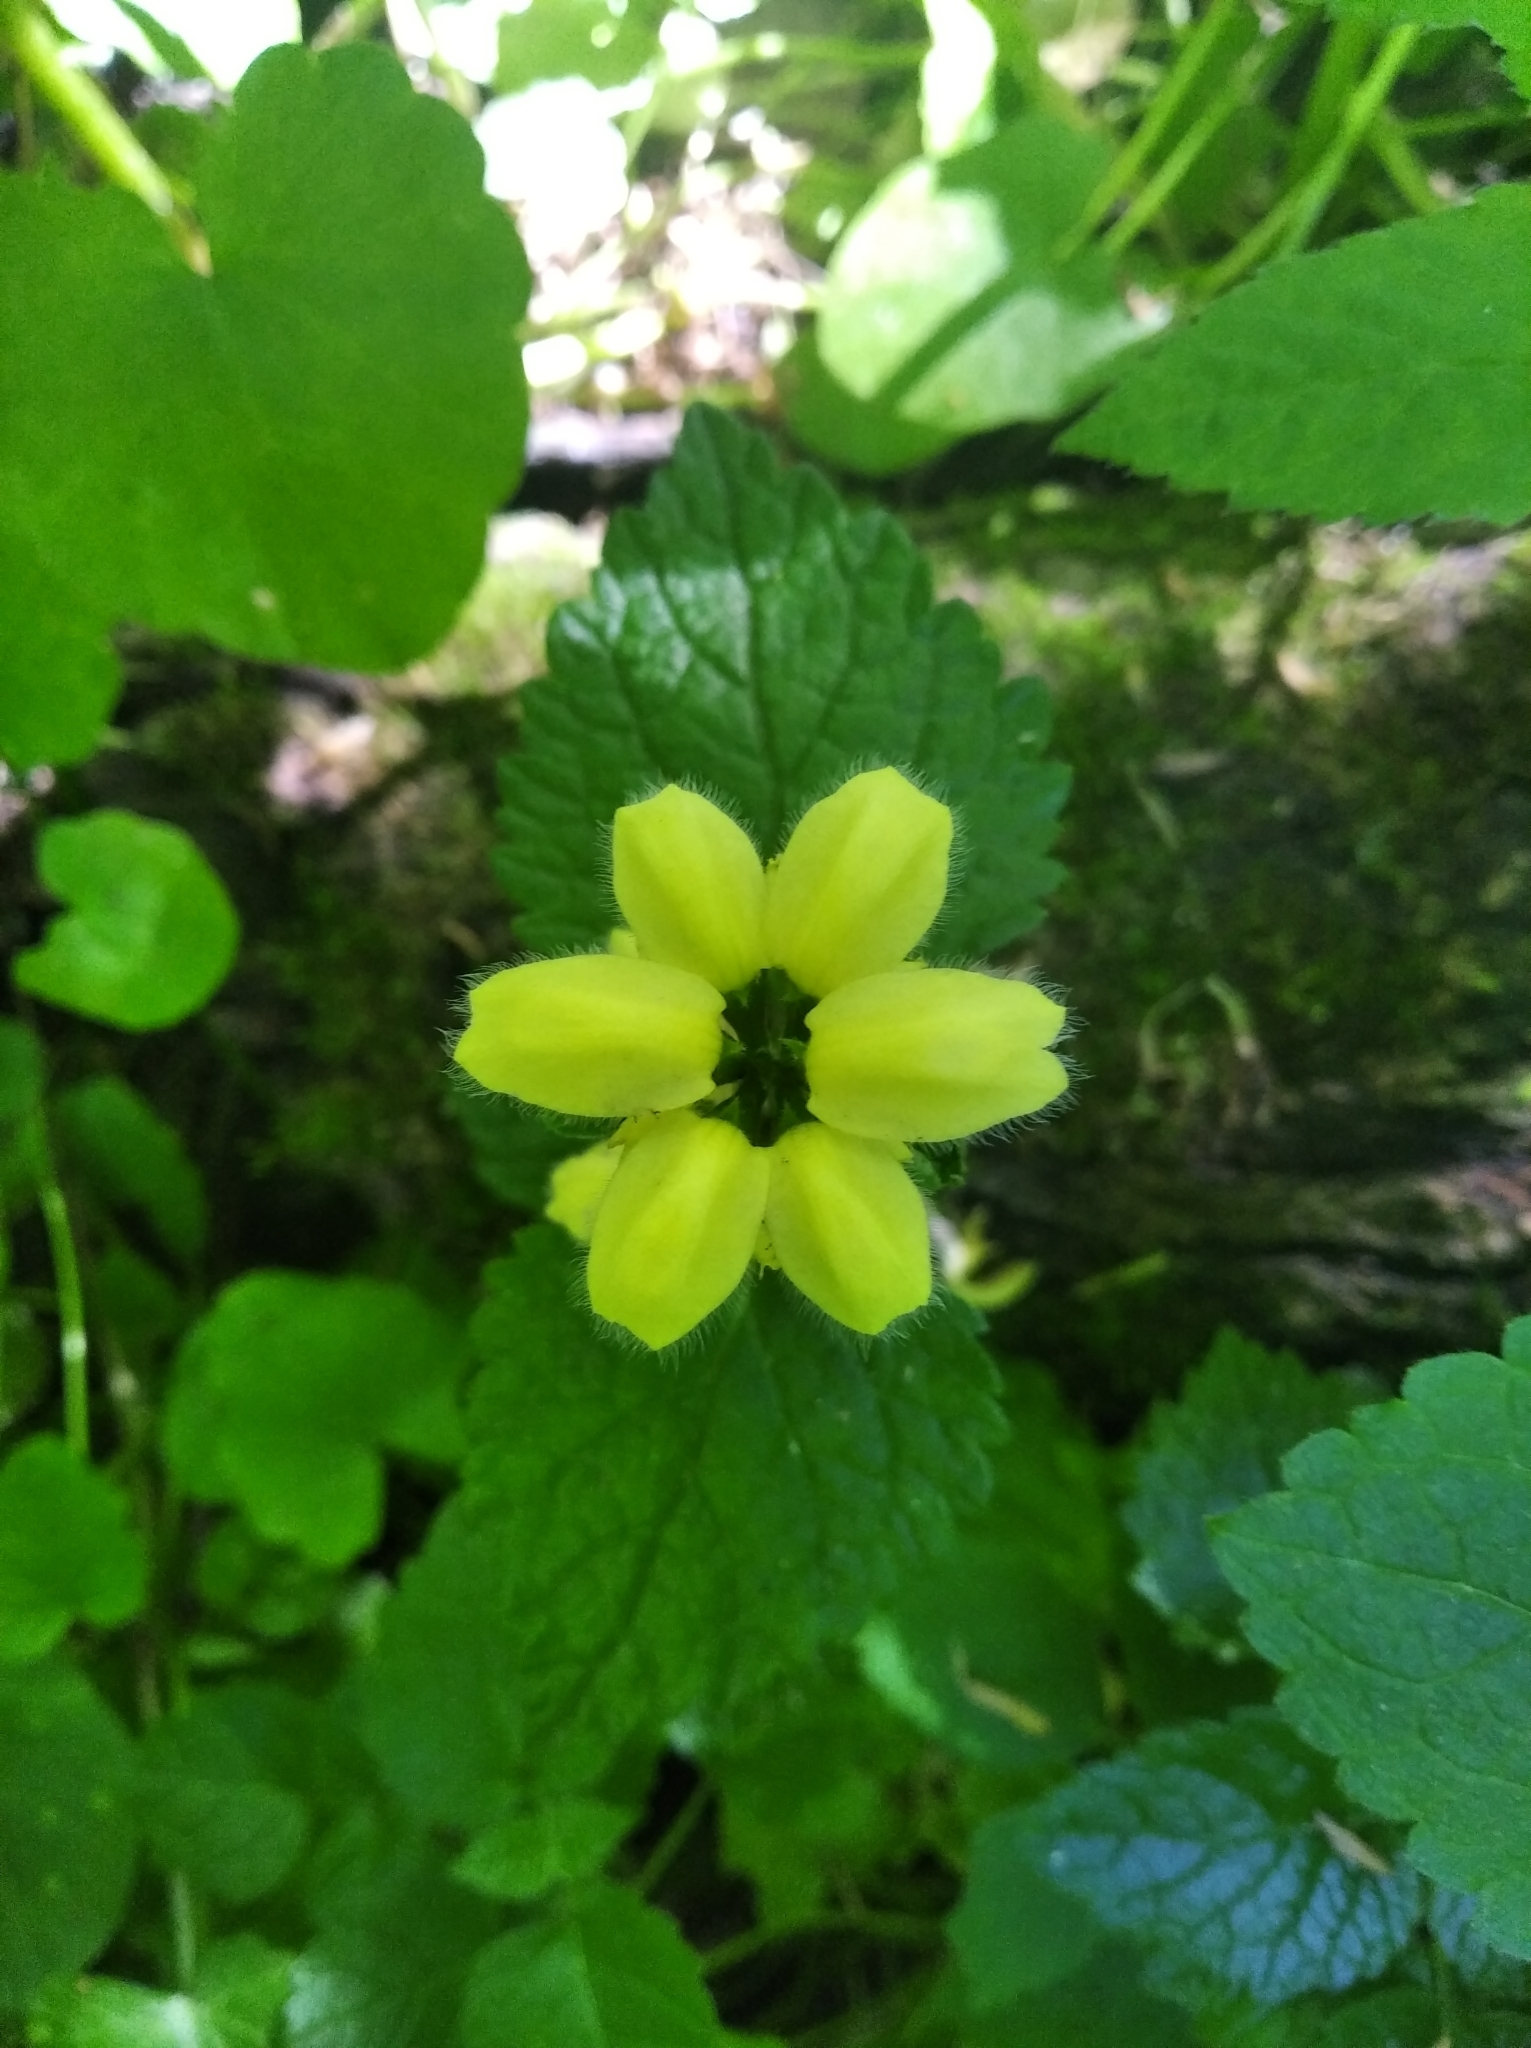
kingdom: Plantae
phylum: Tracheophyta
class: Magnoliopsida
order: Lamiales
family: Lamiaceae
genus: Lamium
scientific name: Lamium galeobdolon
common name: Yellow archangel
